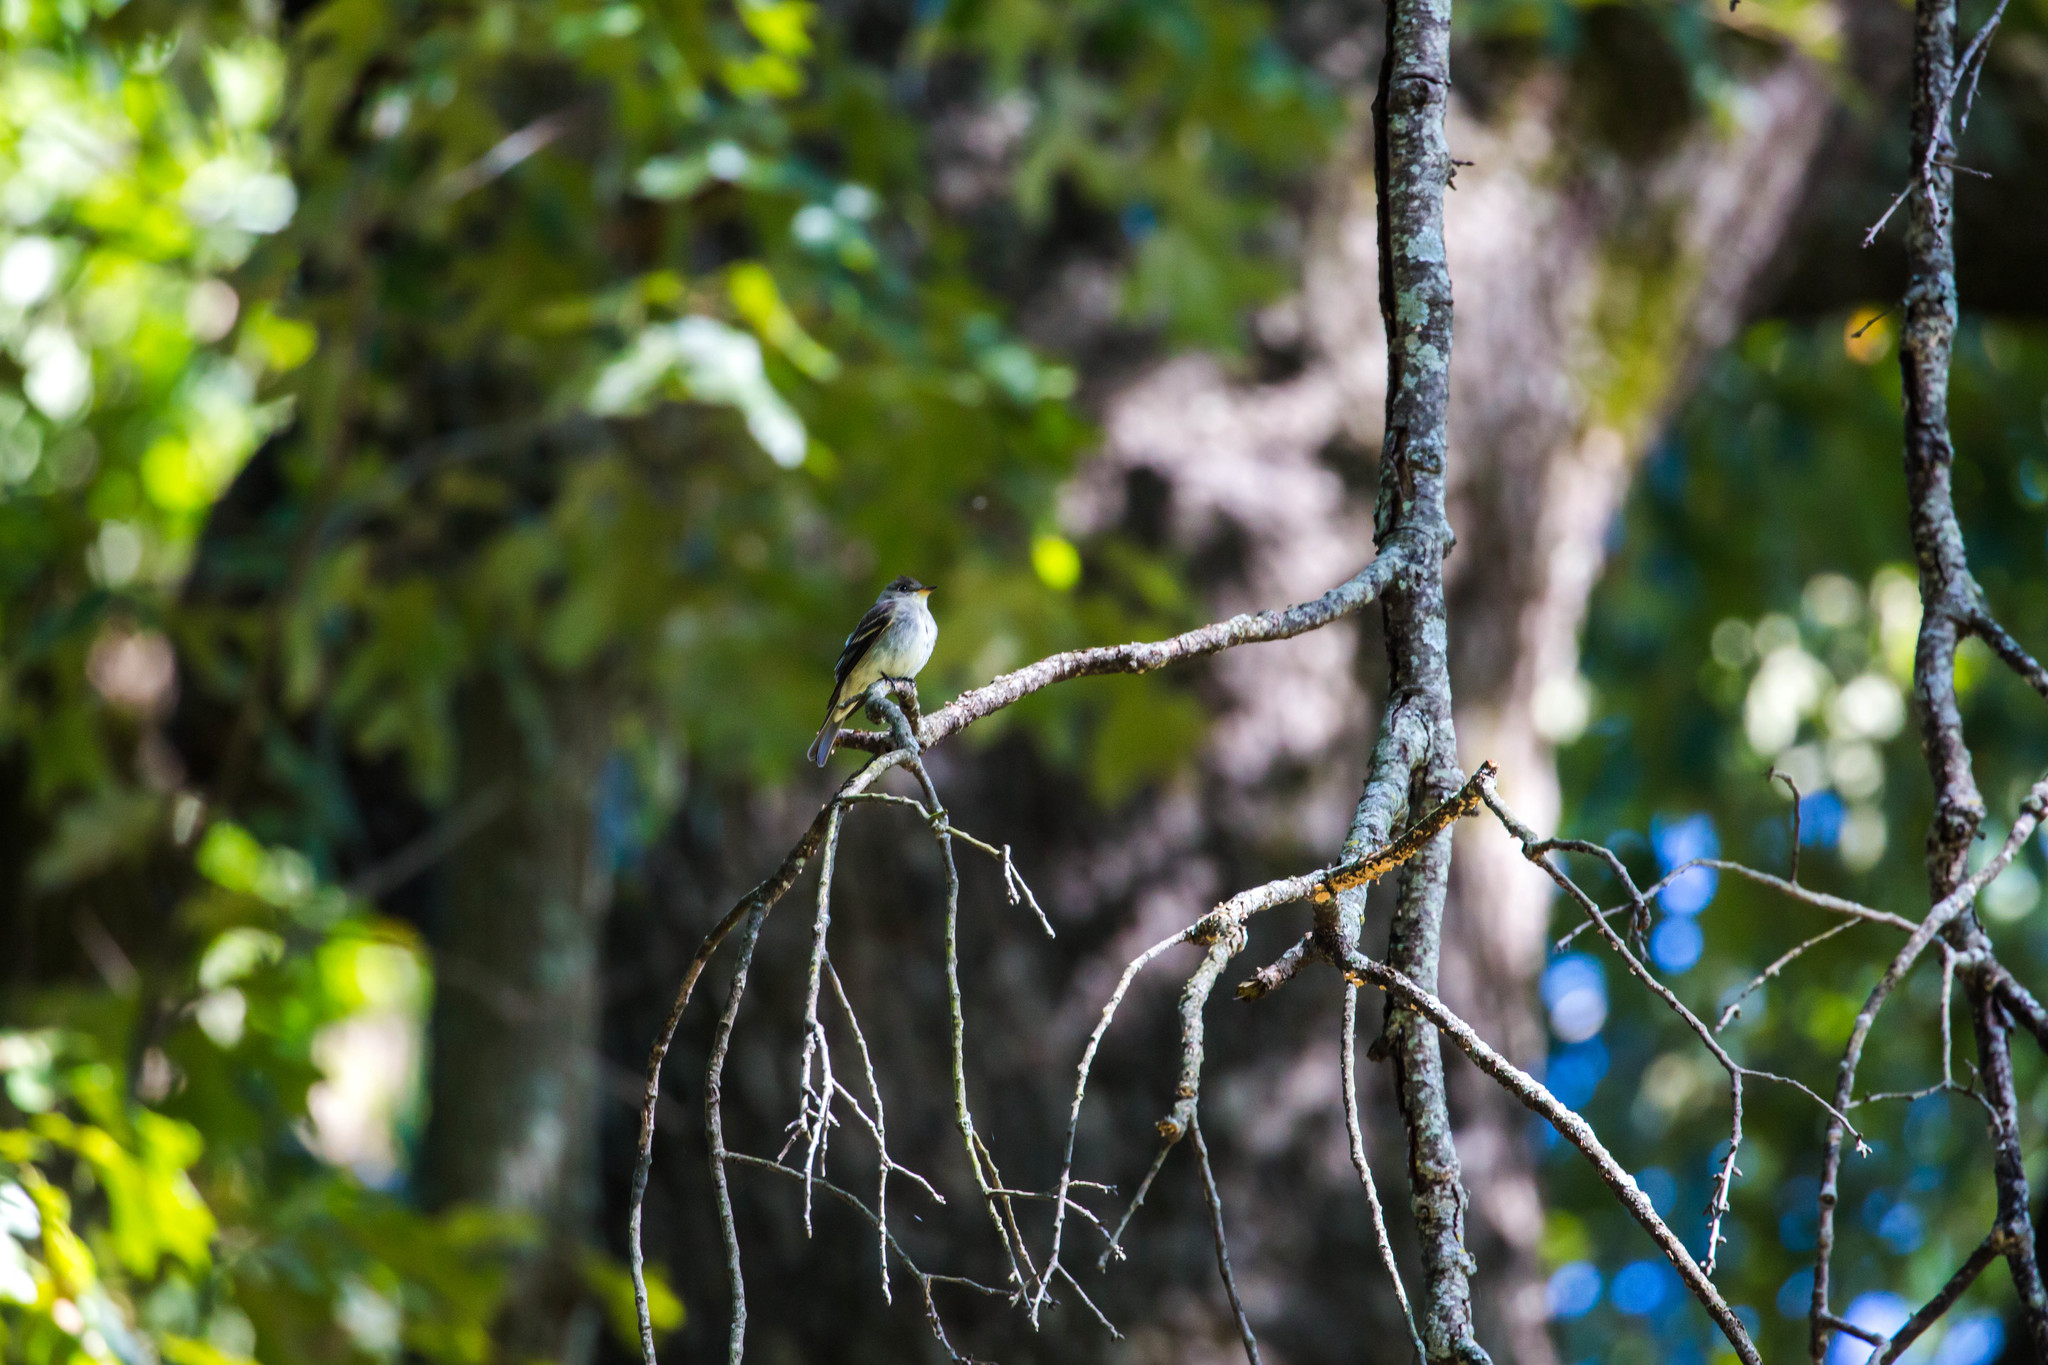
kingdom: Animalia
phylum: Chordata
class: Aves
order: Passeriformes
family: Tyrannidae
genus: Contopus
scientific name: Contopus virens
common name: Eastern wood-pewee
